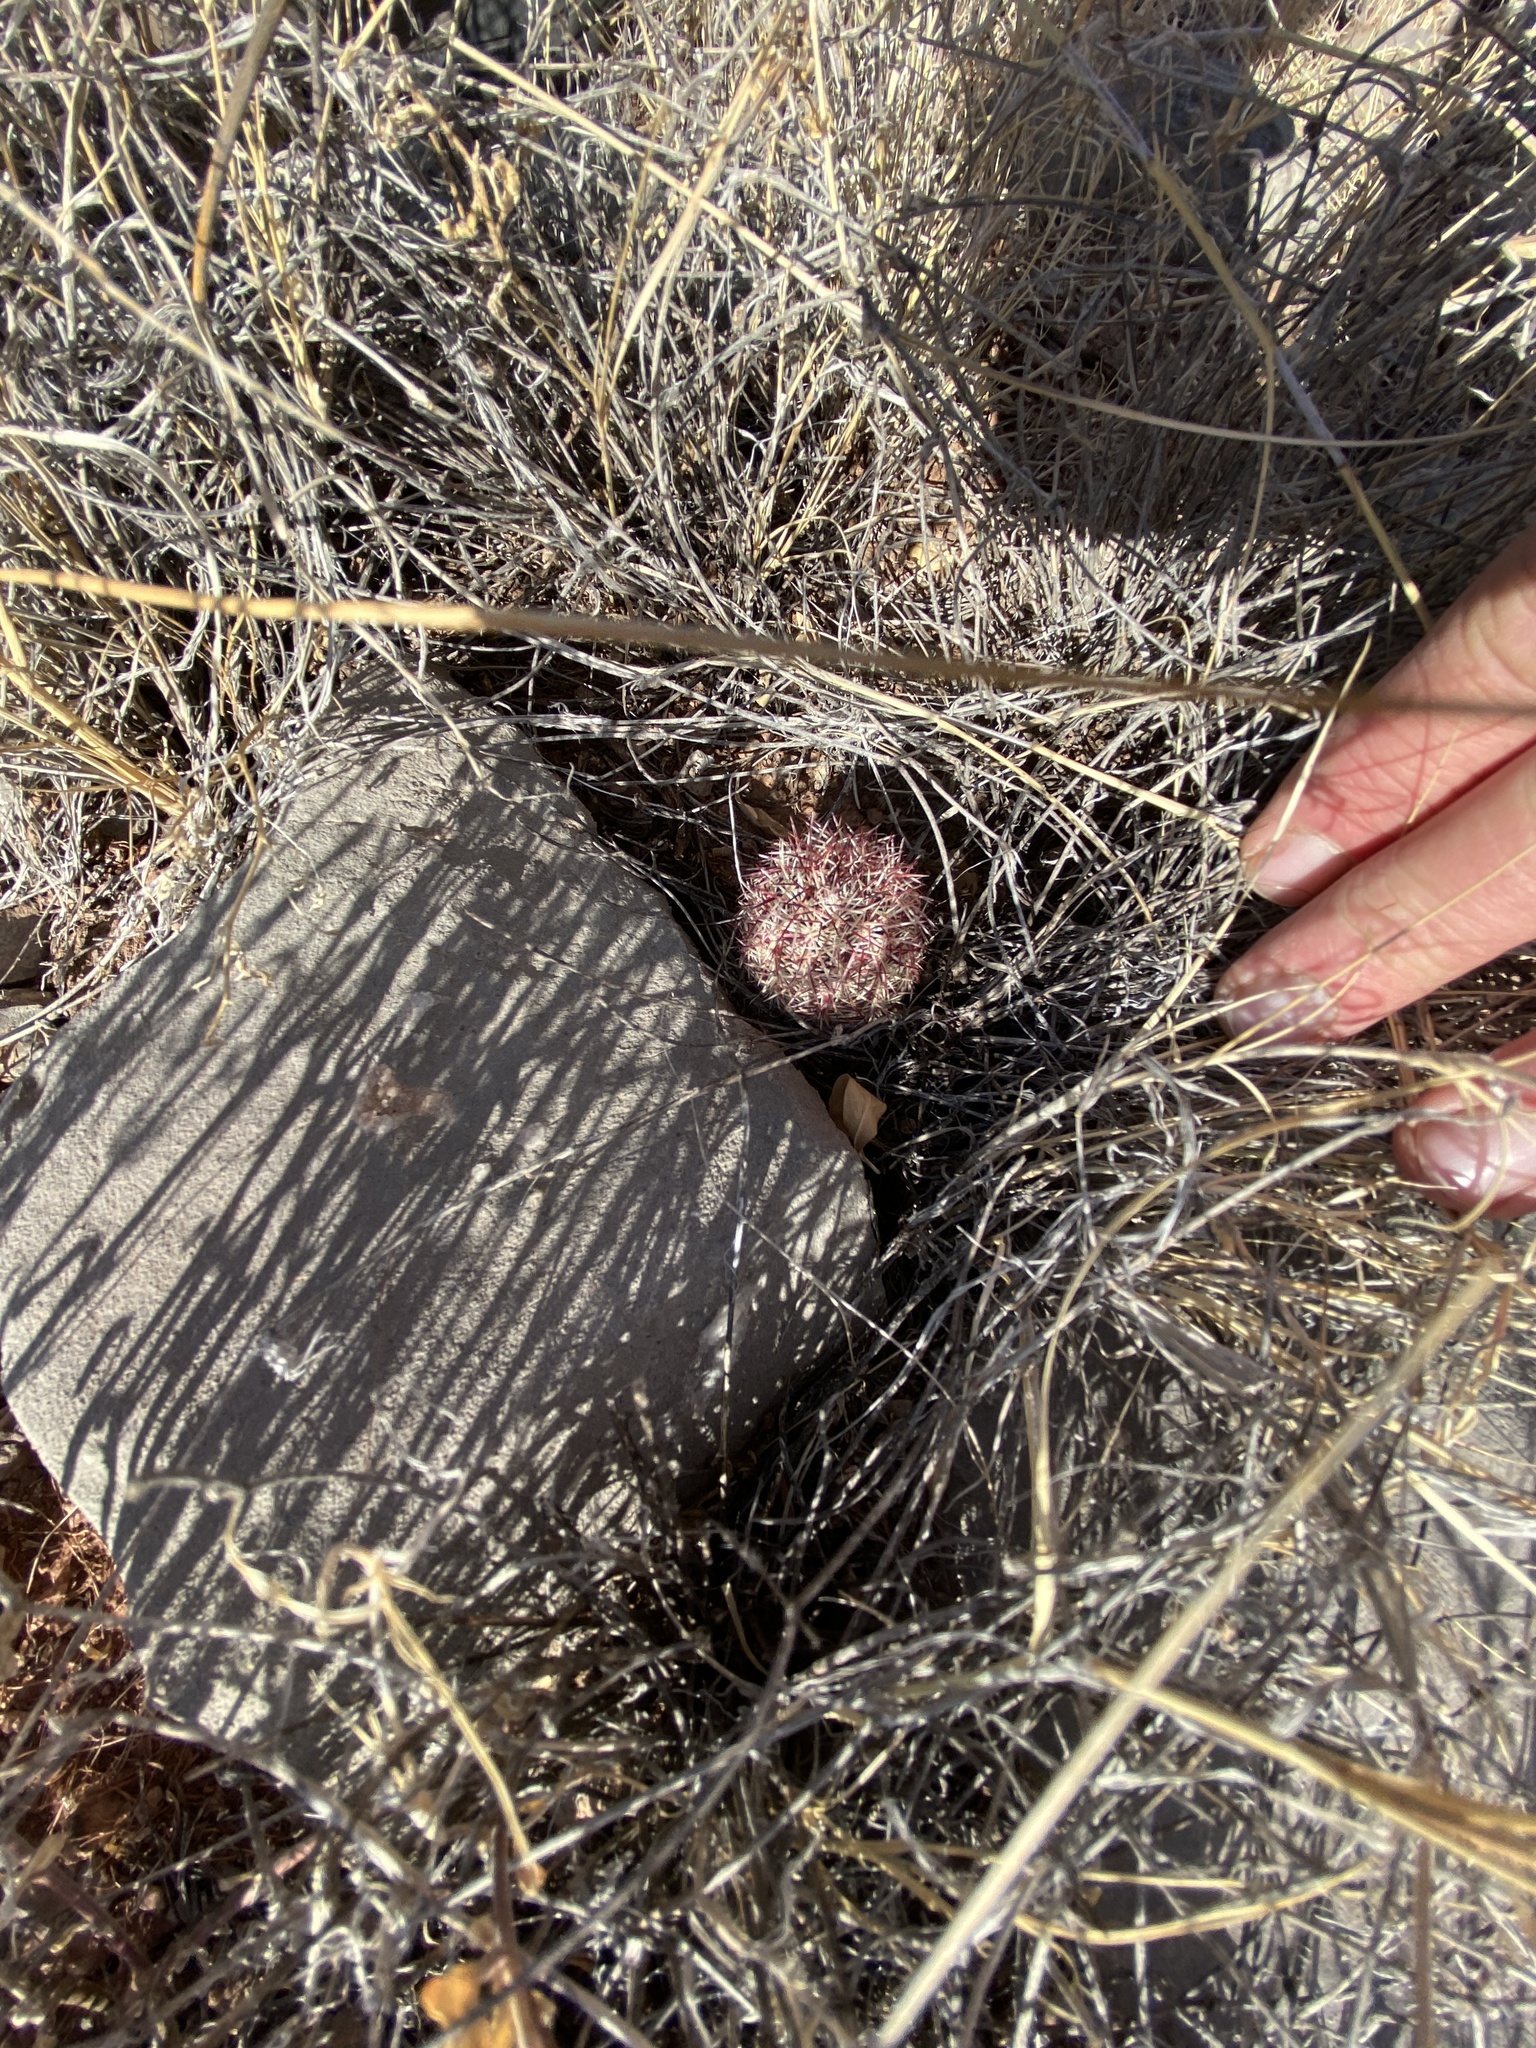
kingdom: Plantae
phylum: Tracheophyta
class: Magnoliopsida
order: Caryophyllales
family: Cactaceae
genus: Echinocereus
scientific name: Echinocereus viridiflorus
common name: Nylon hedgehog cactus
